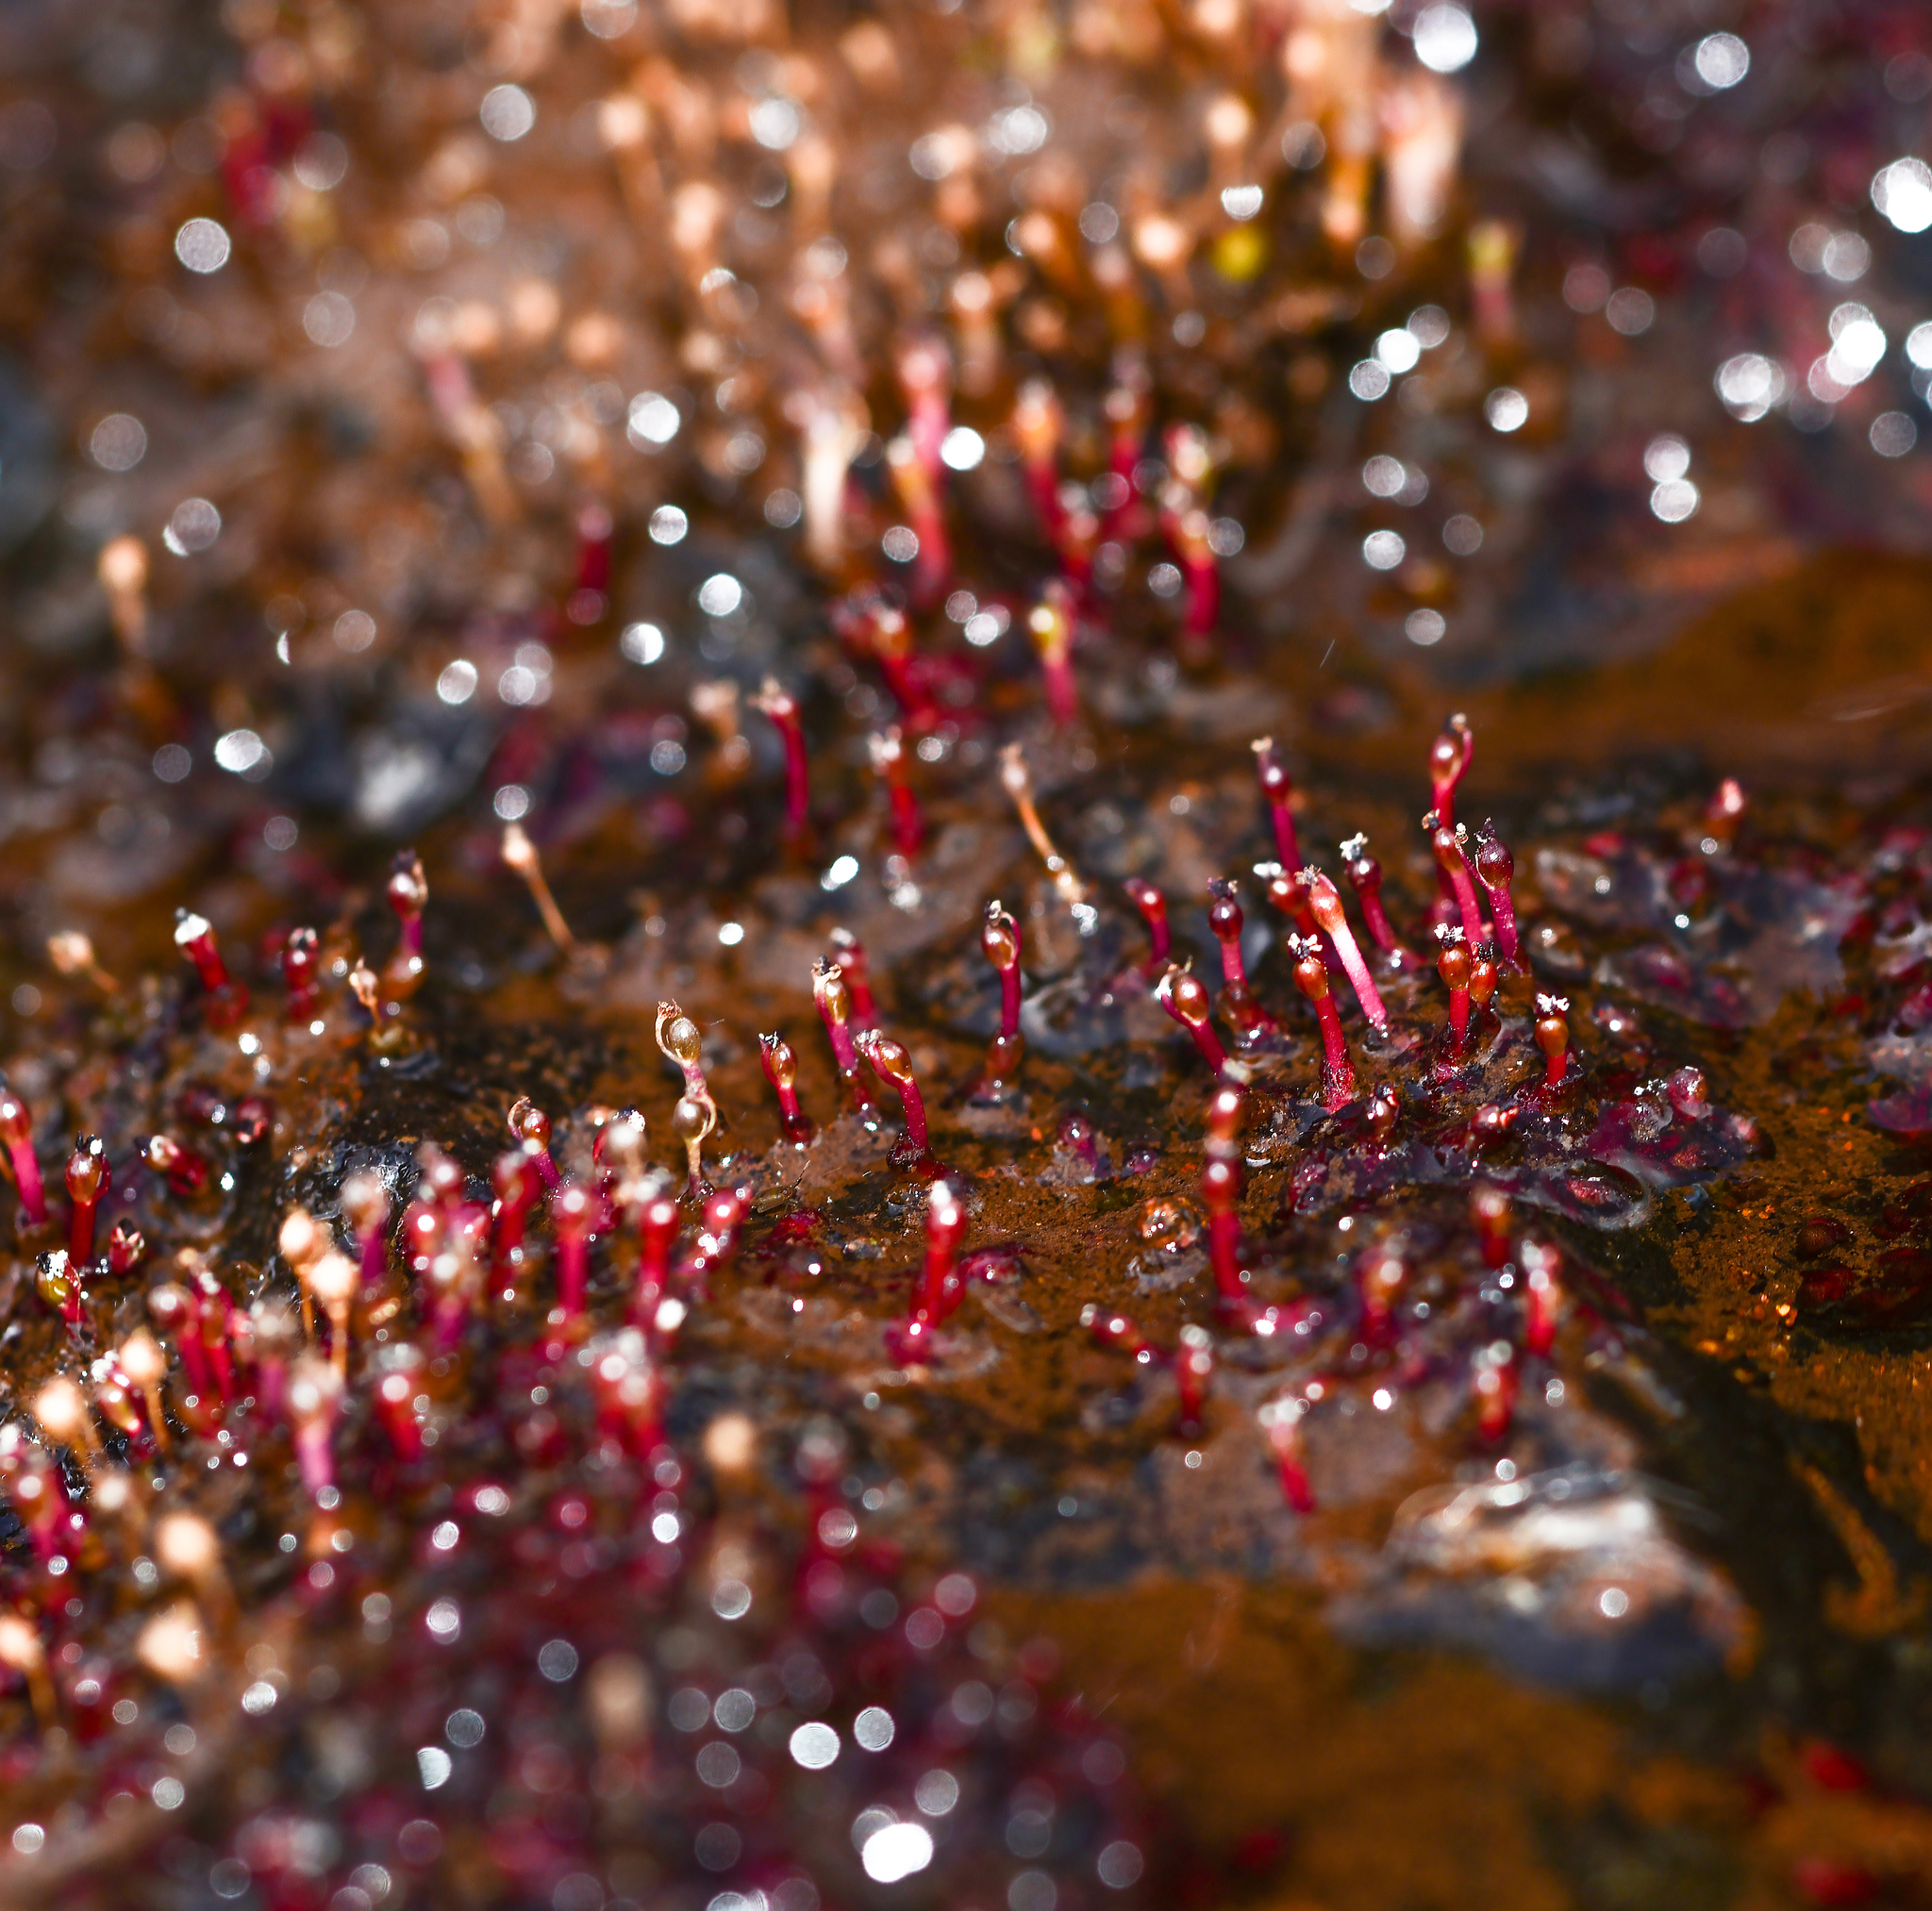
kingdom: Plantae
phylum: Tracheophyta
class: Magnoliopsida
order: Malpighiales
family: Podostemaceae
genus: Cladopus
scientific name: Cladopus hookeriana
